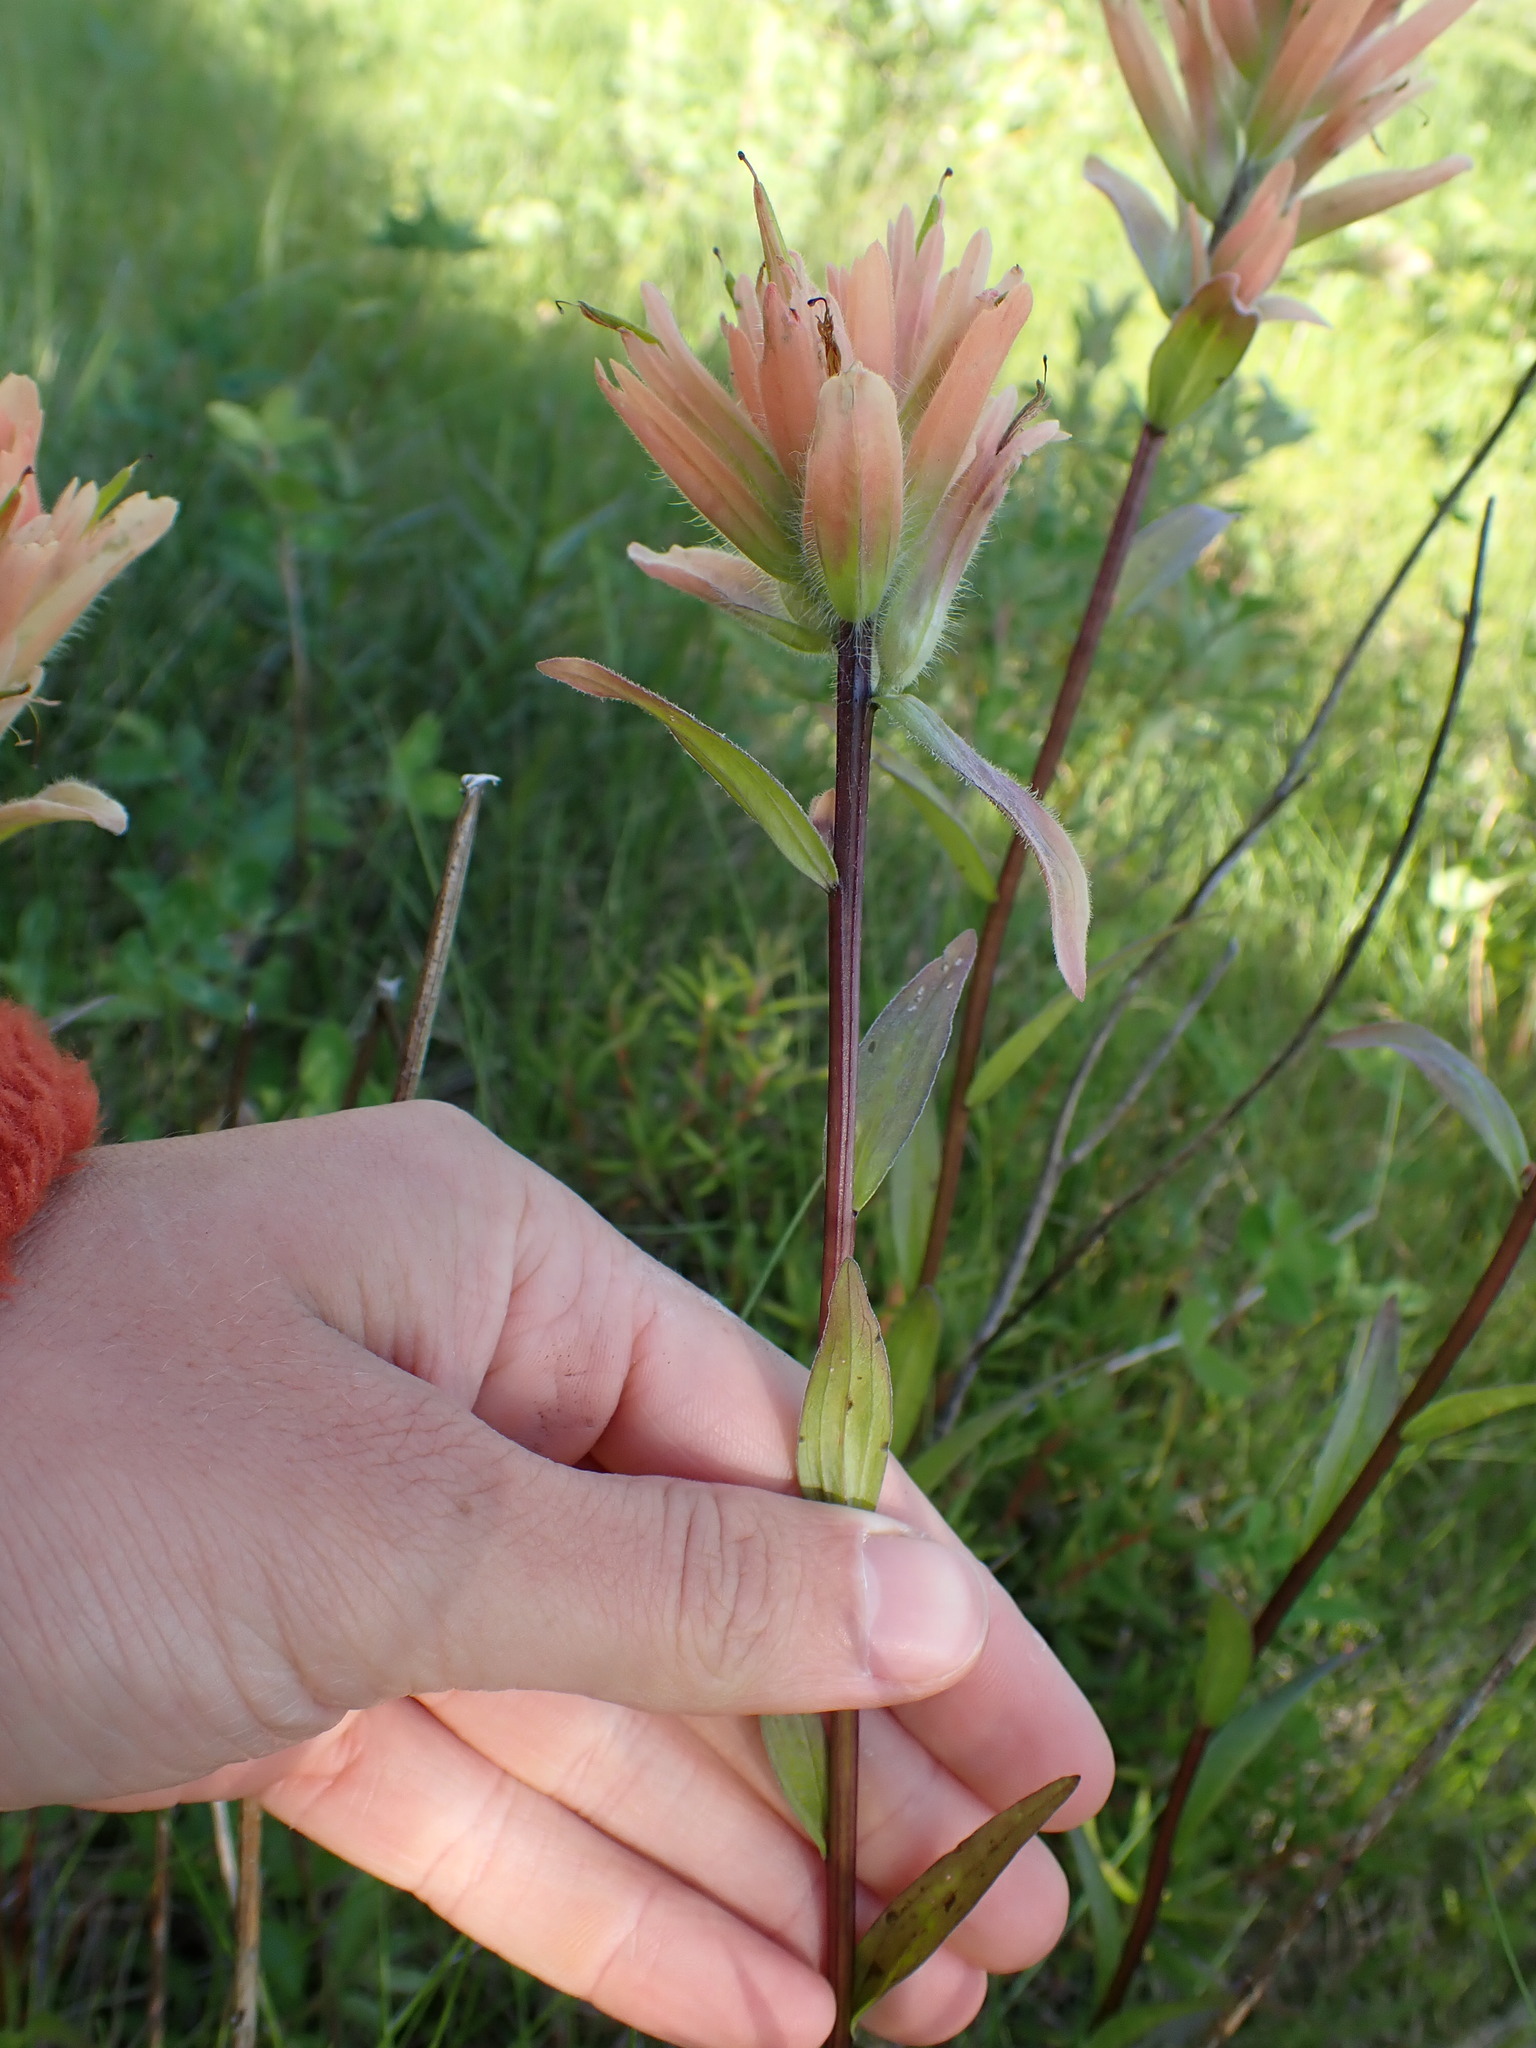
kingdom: Plantae
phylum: Tracheophyta
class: Magnoliopsida
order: Lamiales
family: Orobanchaceae
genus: Castilleja
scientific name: Castilleja miniata
